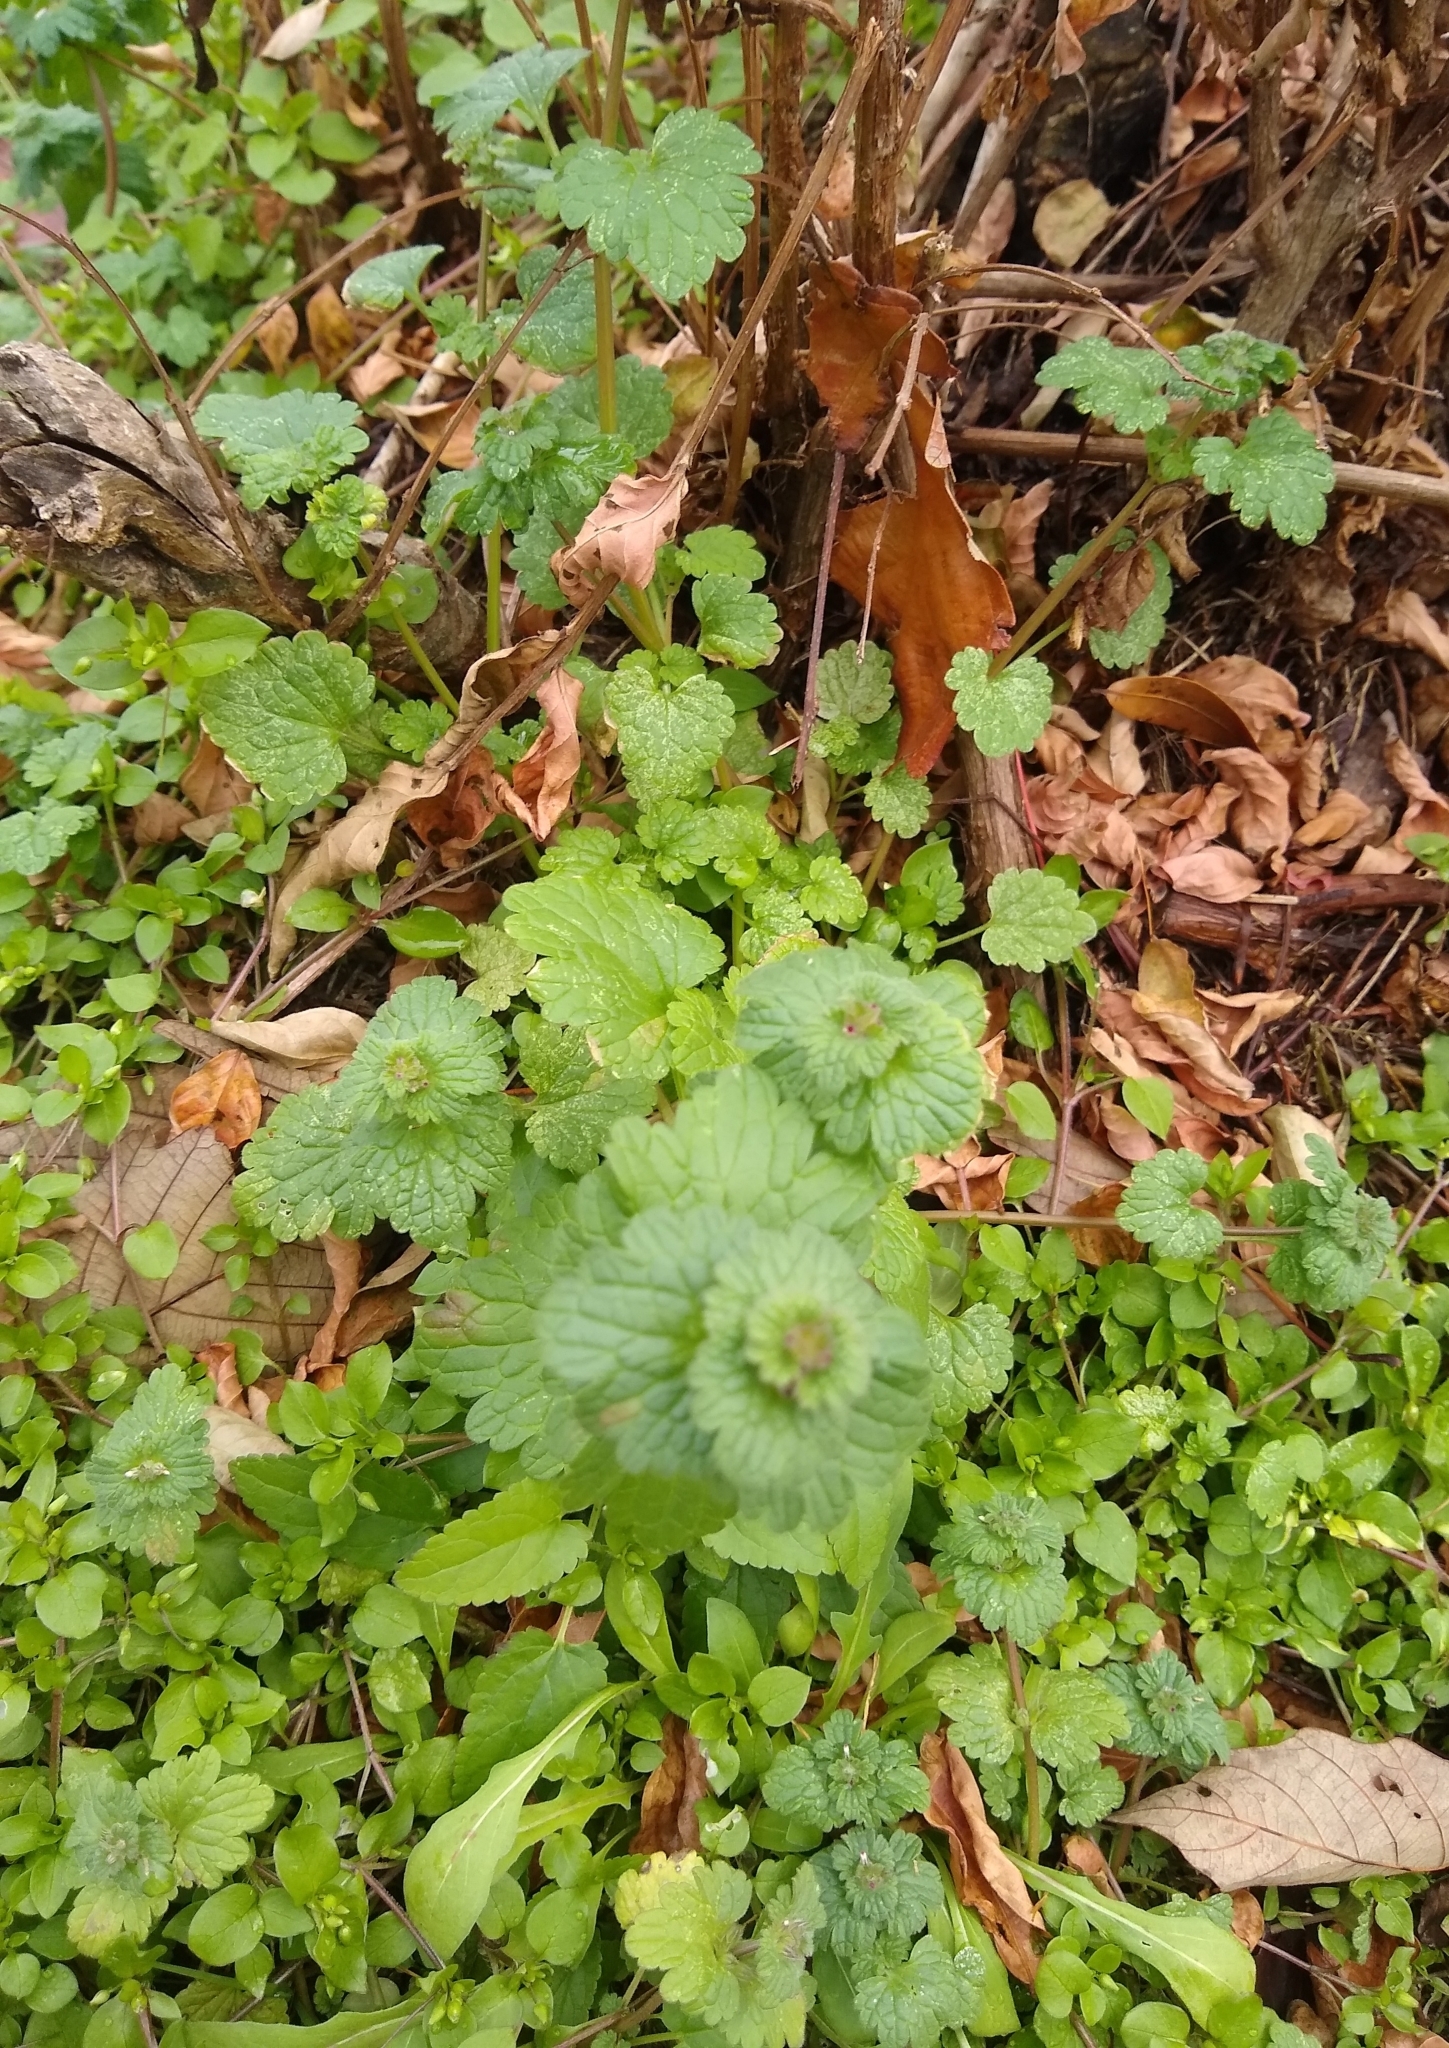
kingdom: Plantae
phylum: Tracheophyta
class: Magnoliopsida
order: Lamiales
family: Lamiaceae
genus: Lamium
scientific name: Lamium amplexicaule
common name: Henbit dead-nettle
